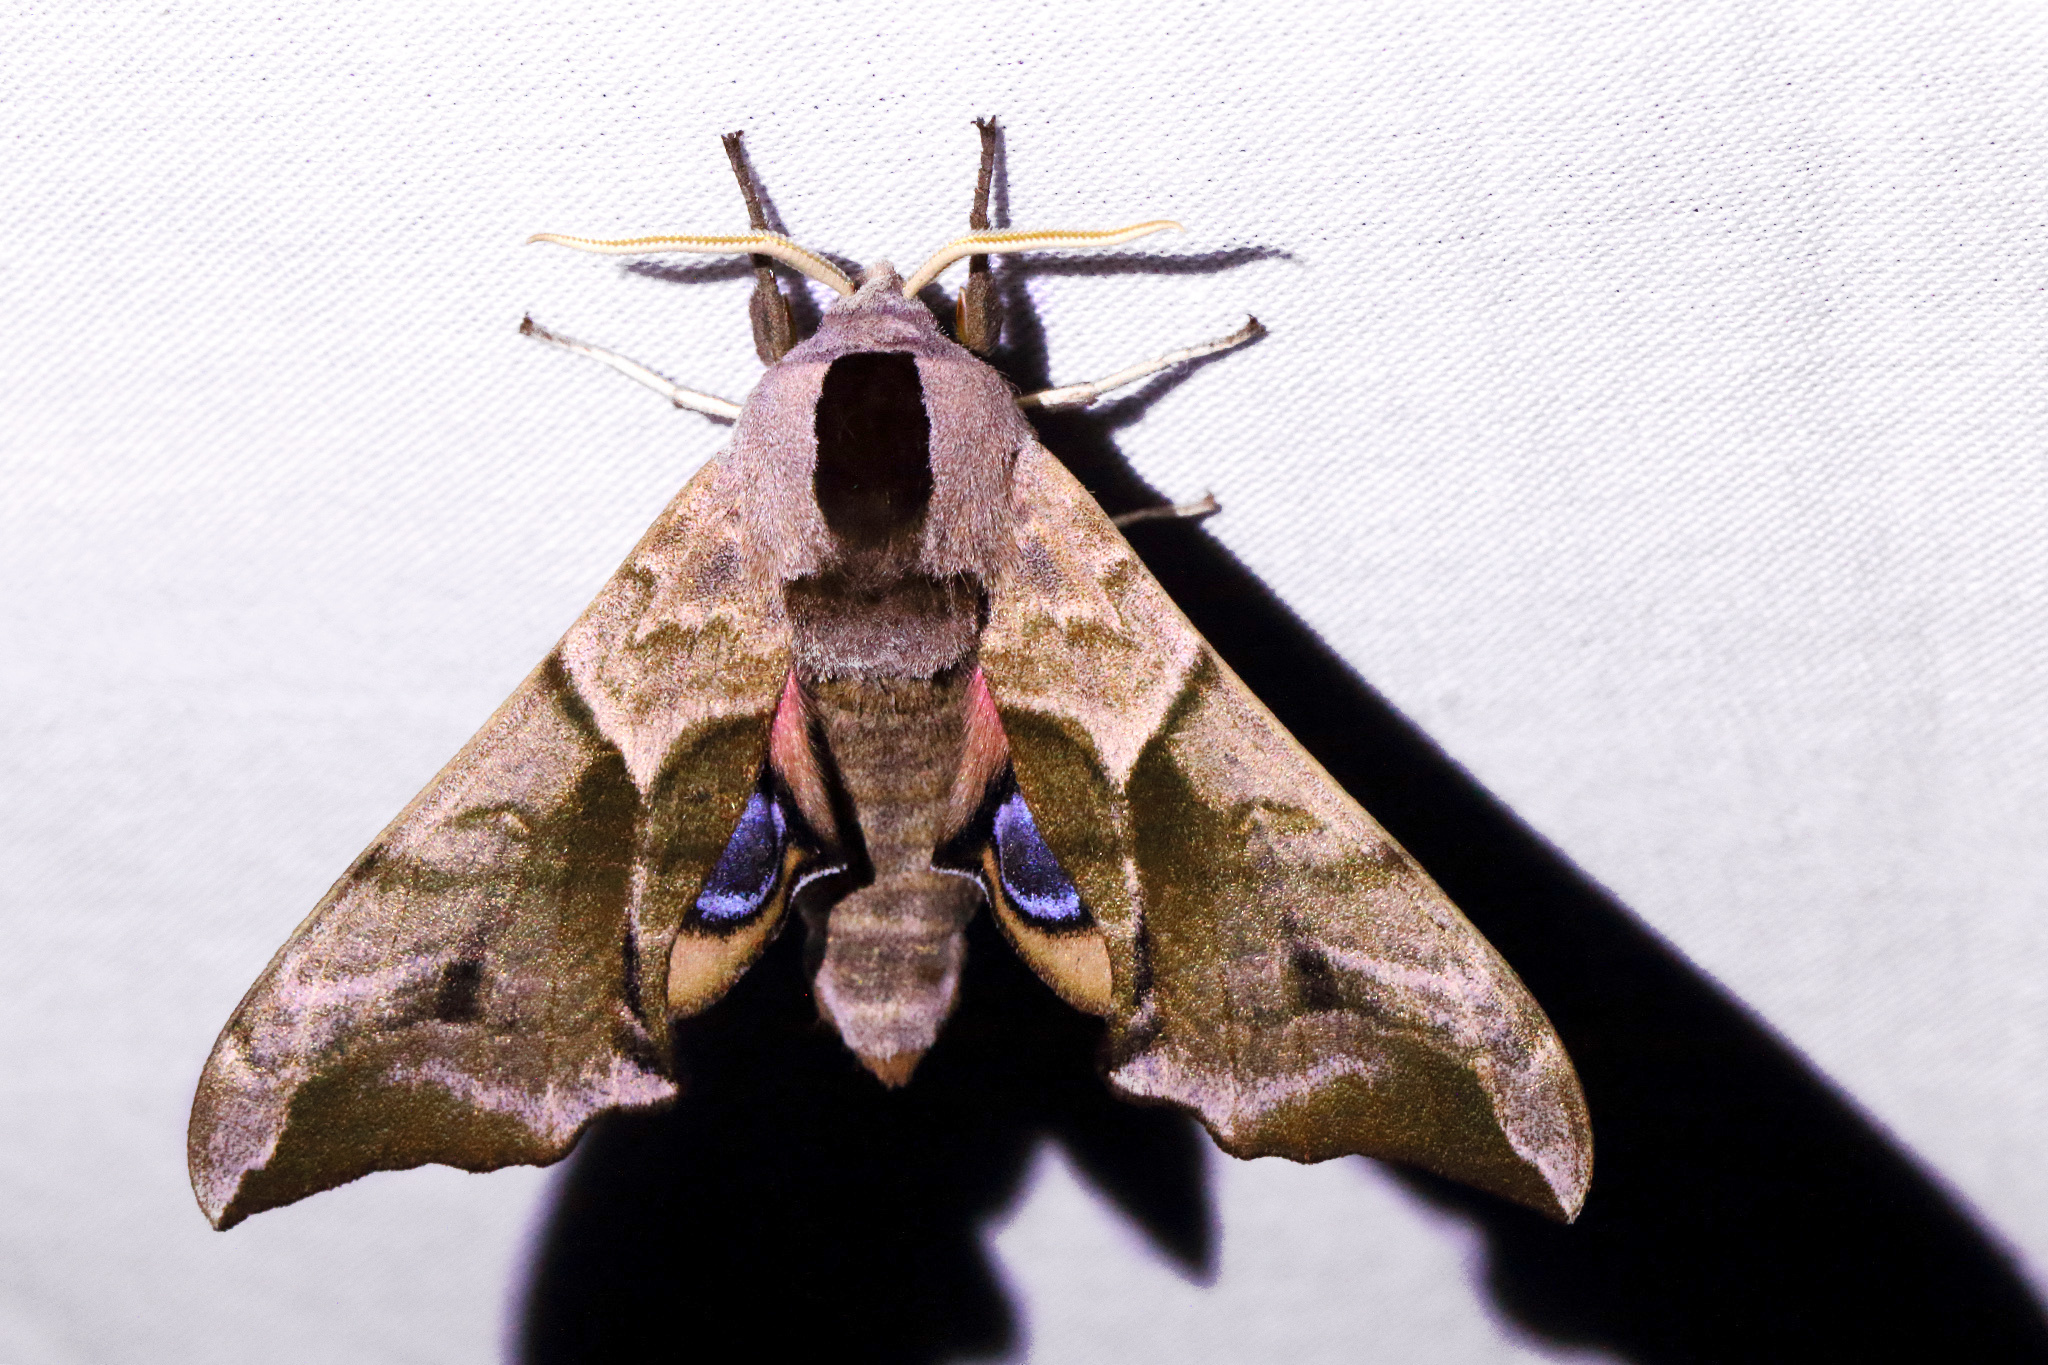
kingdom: Animalia
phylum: Arthropoda
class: Insecta
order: Lepidoptera
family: Sphingidae
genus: Smerinthus
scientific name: Smerinthus ocellata
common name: Eyed hawk-moth
